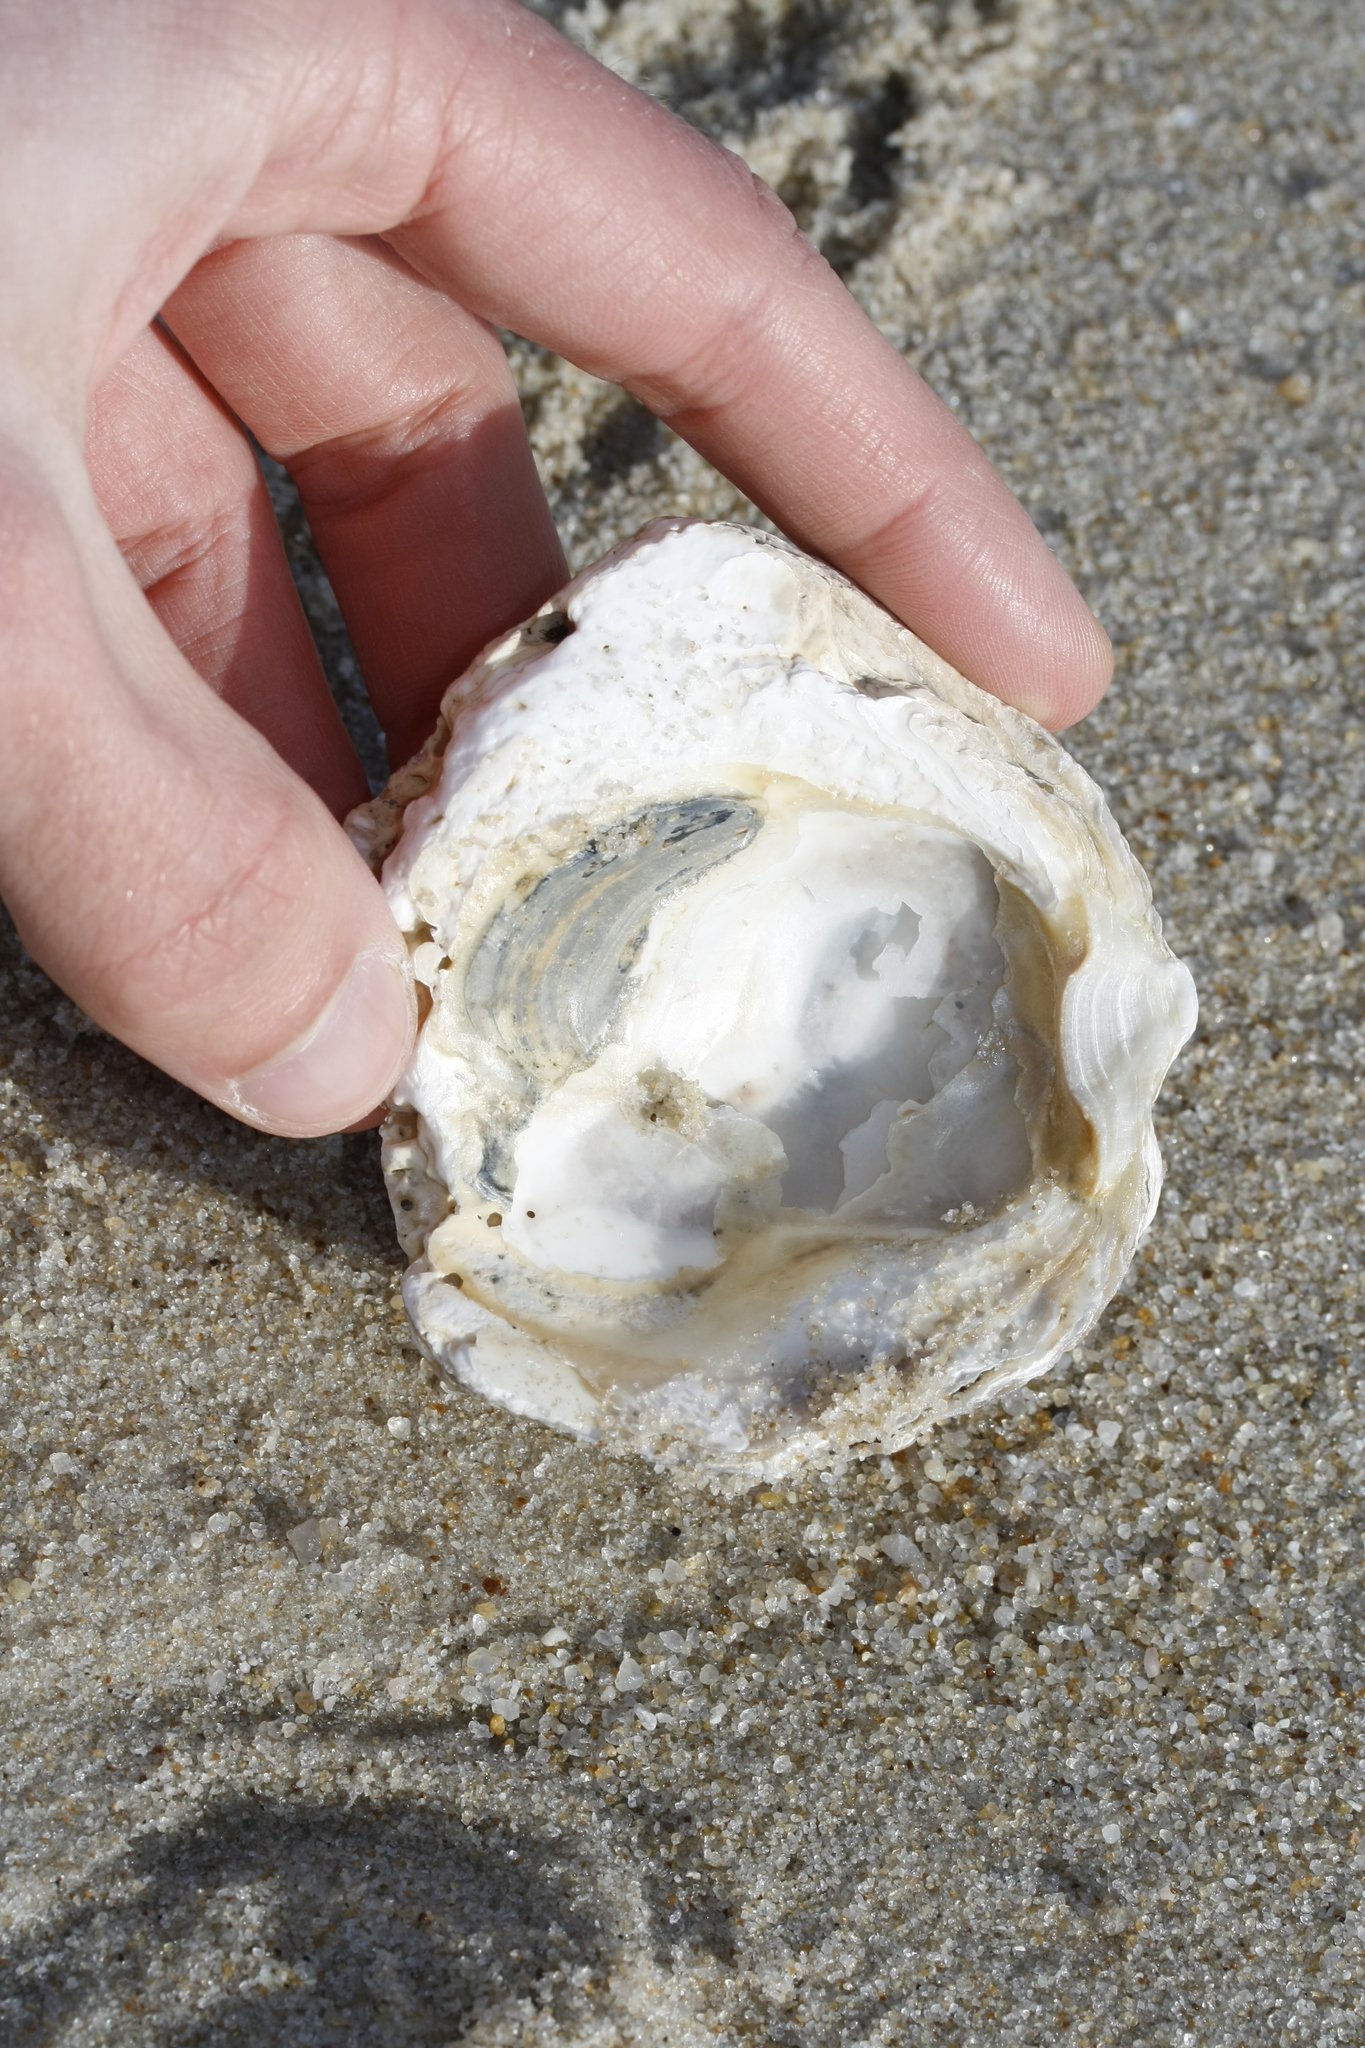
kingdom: Animalia
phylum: Mollusca
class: Bivalvia
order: Ostreida
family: Ostreidae
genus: Ostrea
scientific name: Ostrea edulis
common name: Flat oyster
